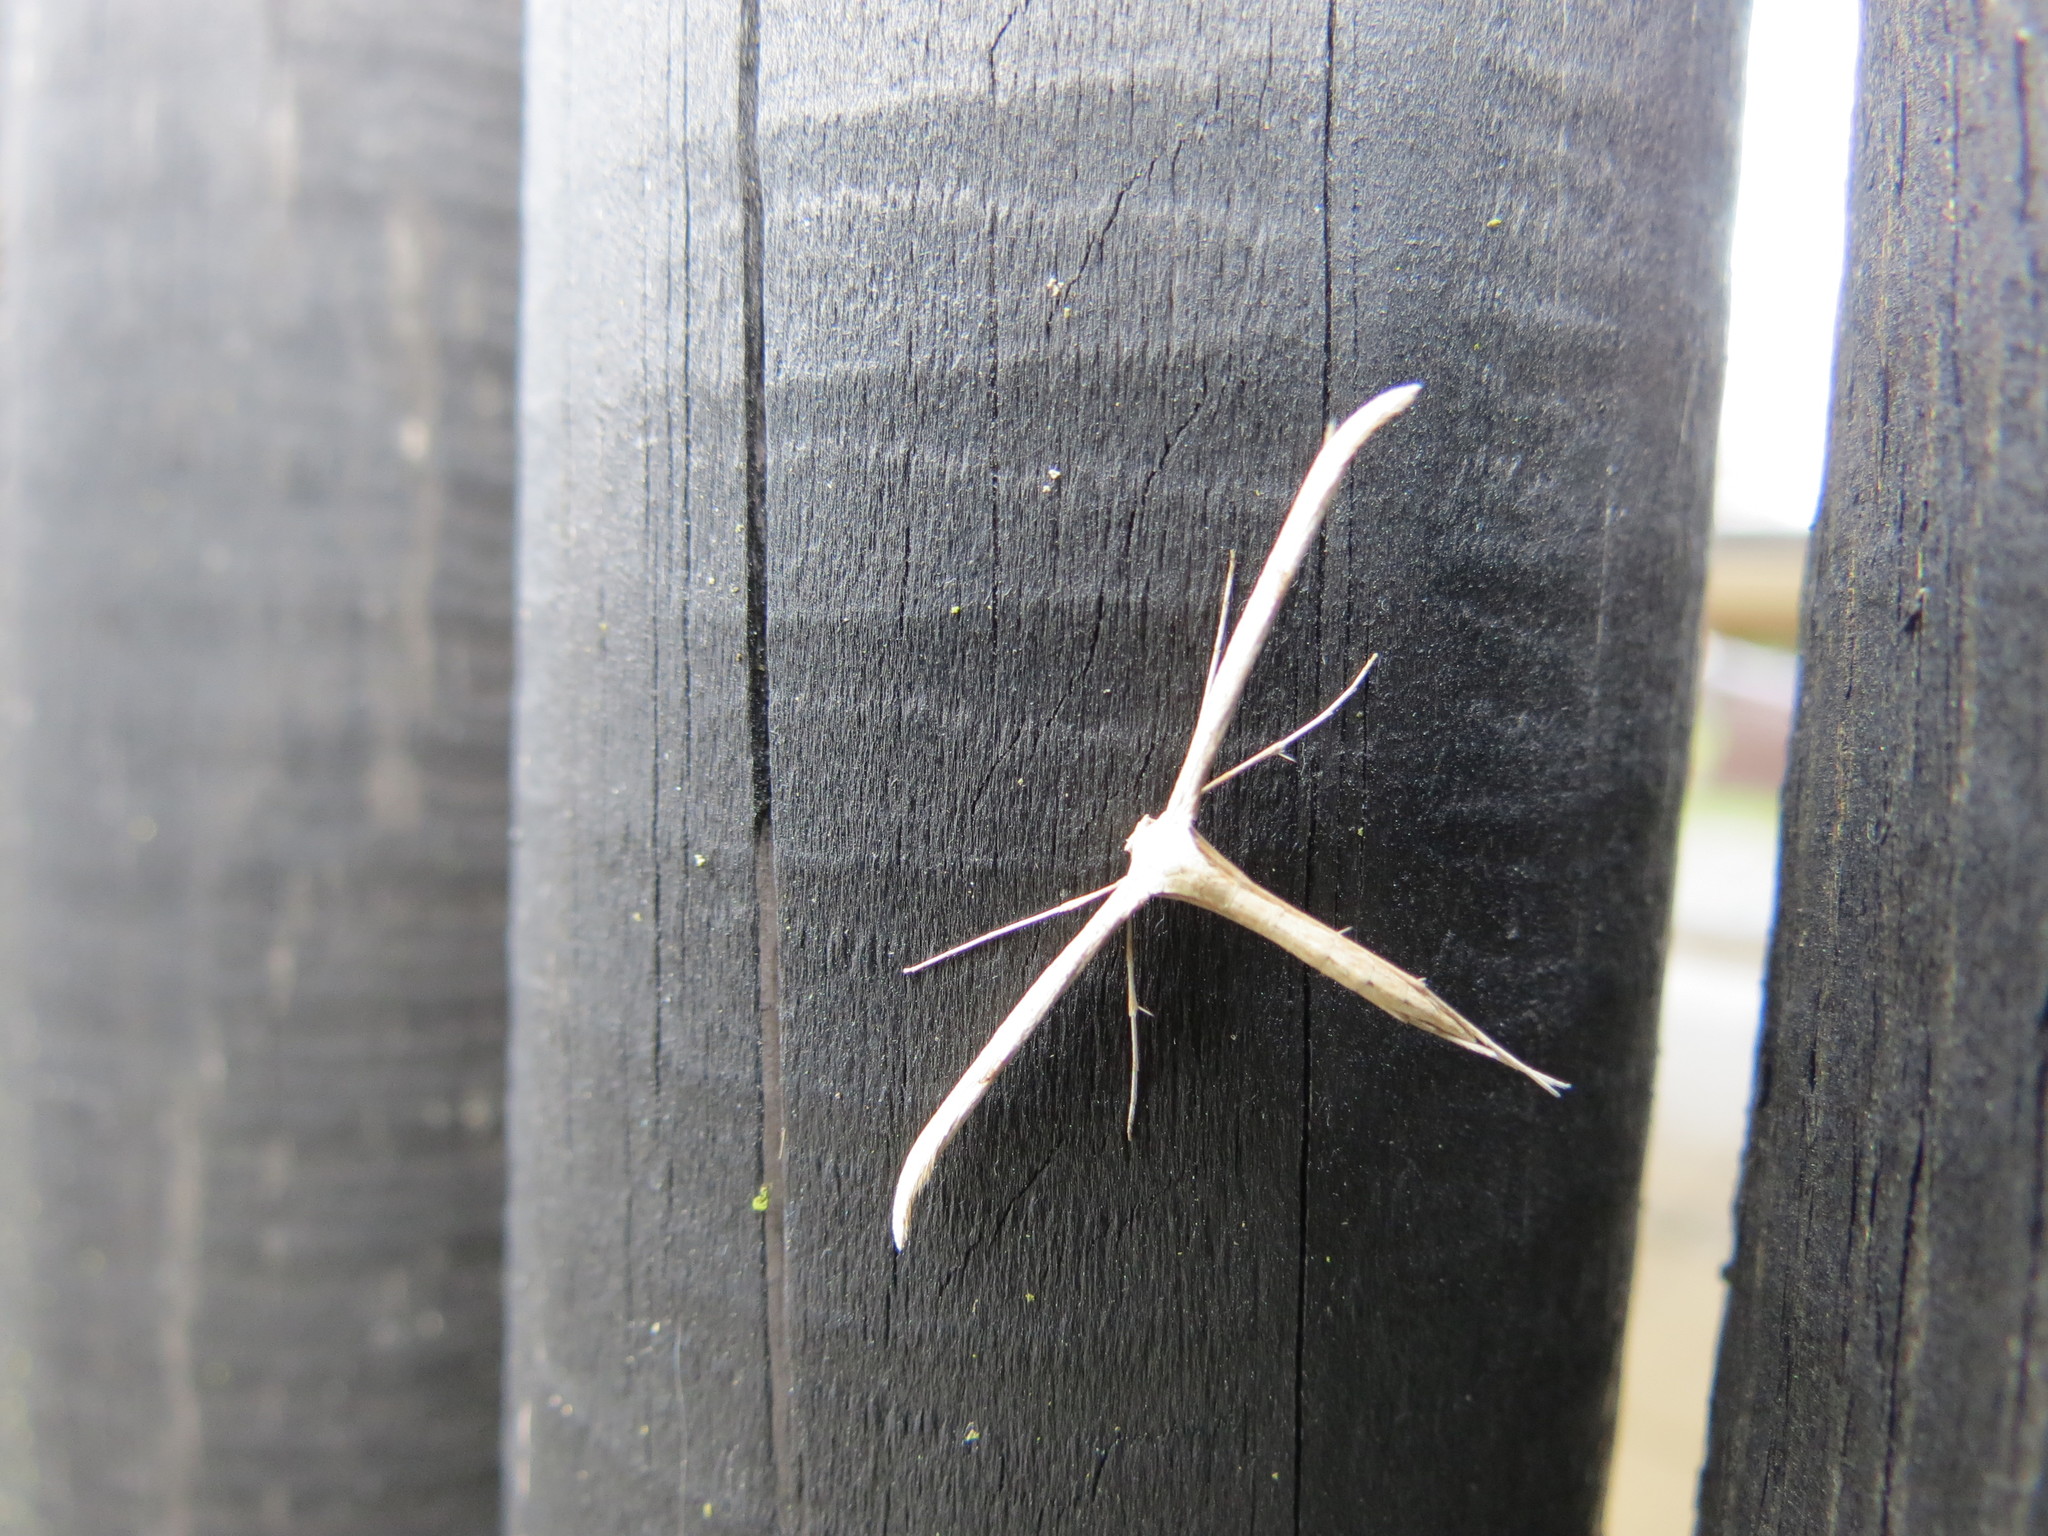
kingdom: Animalia
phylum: Arthropoda
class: Insecta
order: Lepidoptera
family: Pterophoridae
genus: Emmelina
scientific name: Emmelina monodactyla
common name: Common plume
